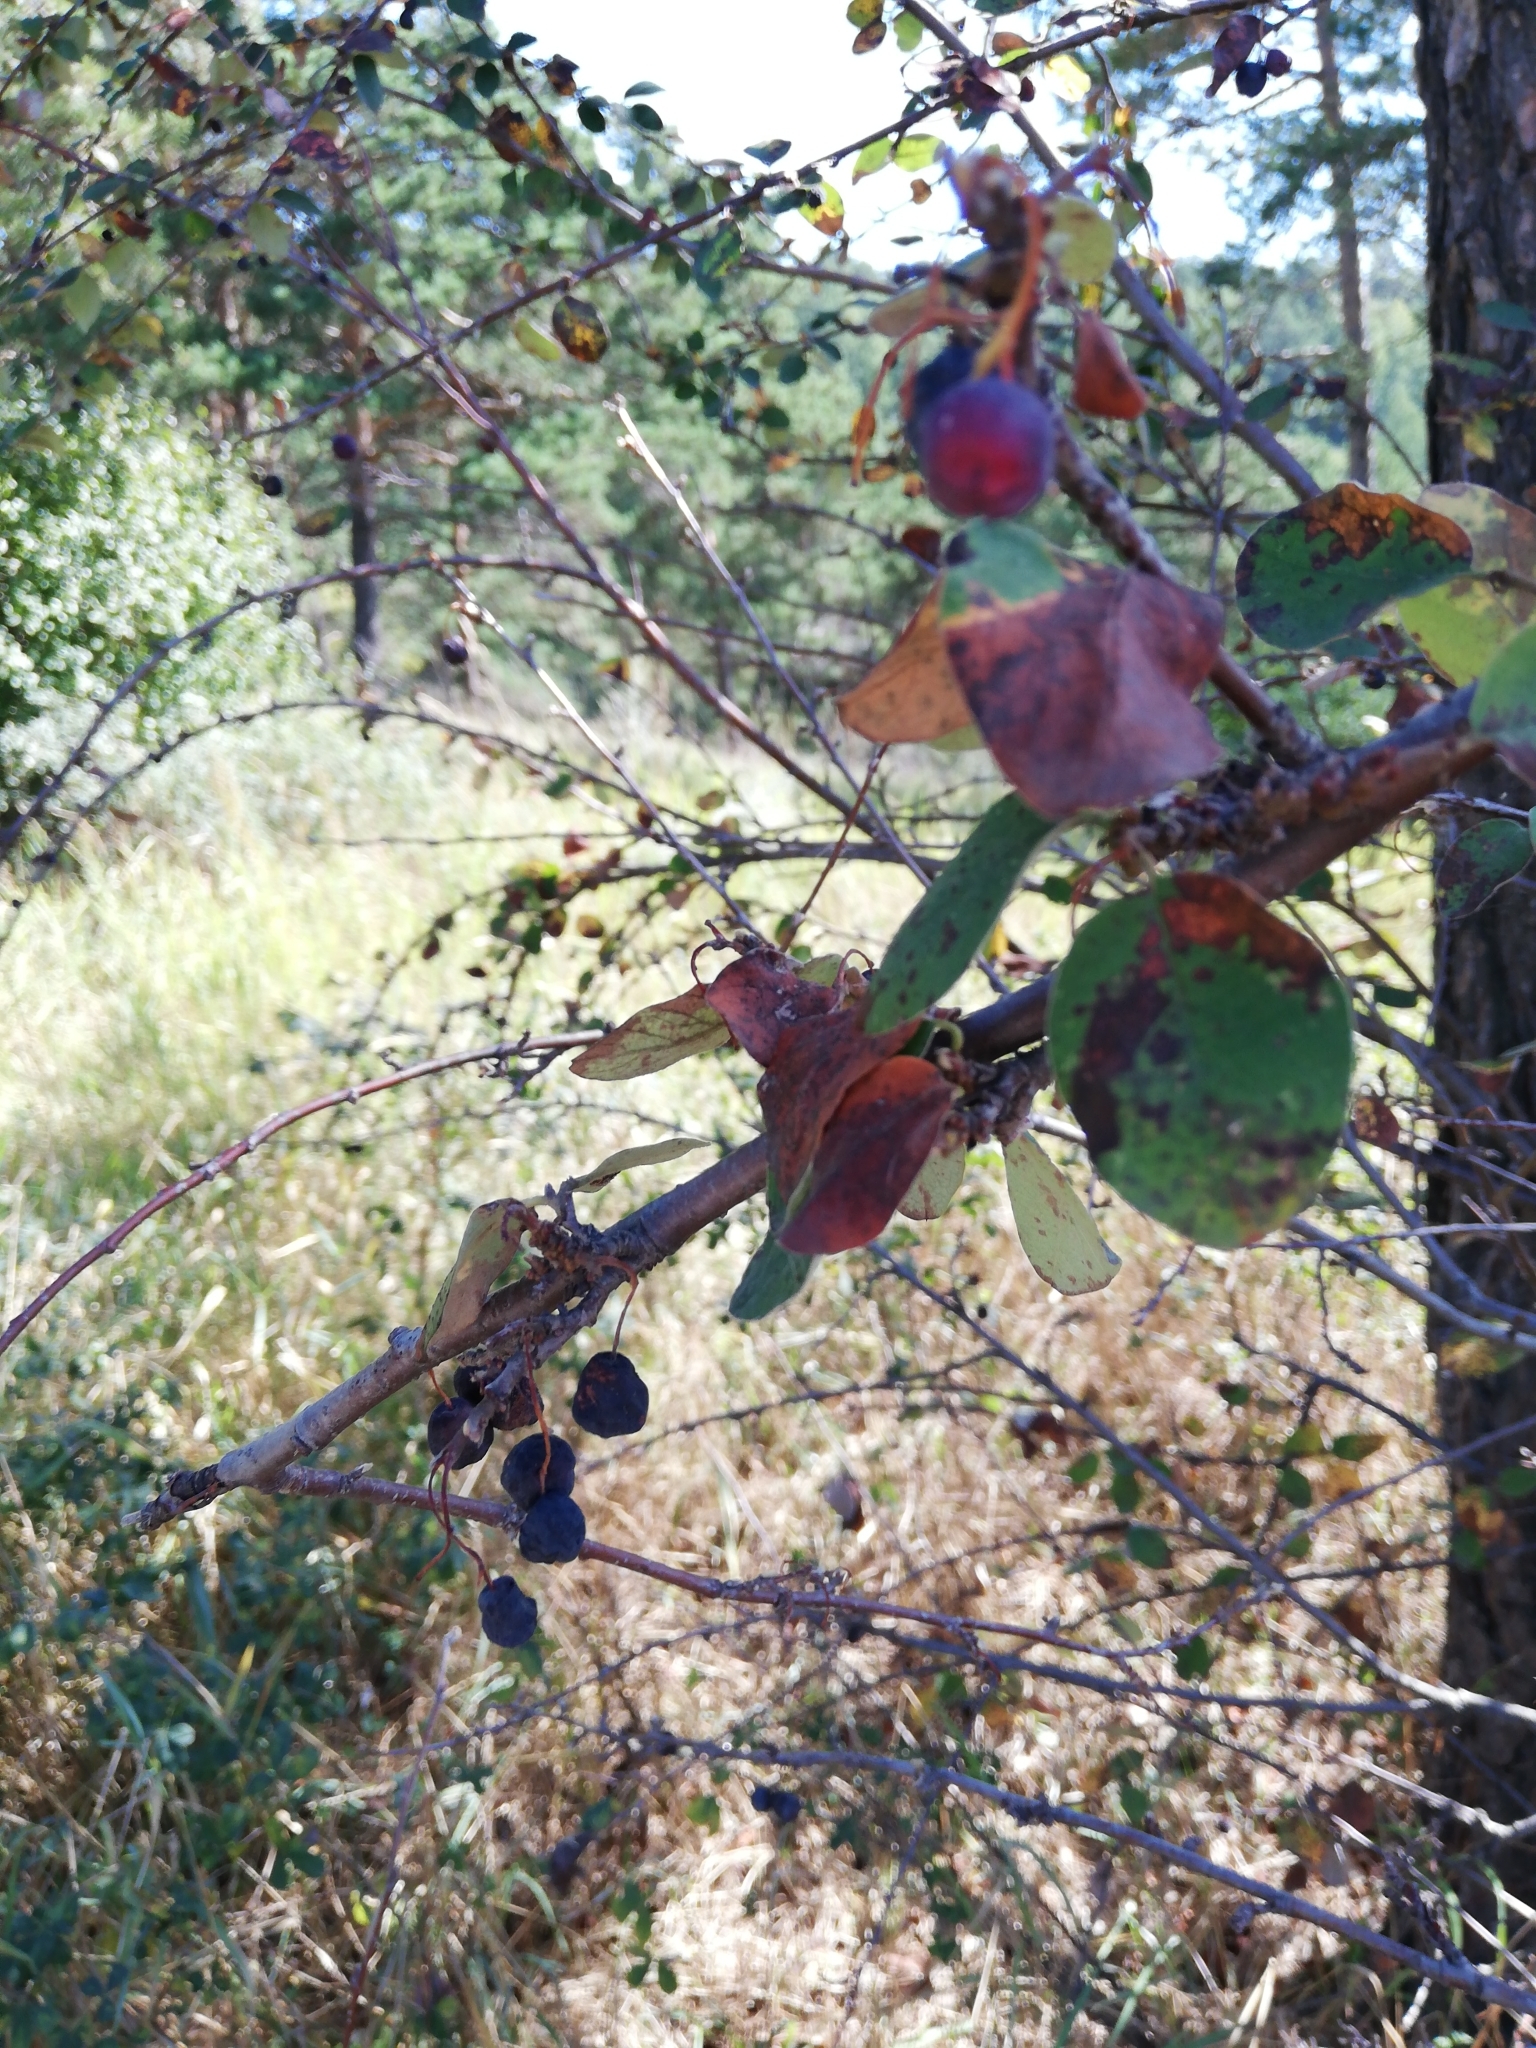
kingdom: Plantae
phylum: Tracheophyta
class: Magnoliopsida
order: Rosales
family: Rosaceae
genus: Cotoneaster
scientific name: Cotoneaster melanocarpus
